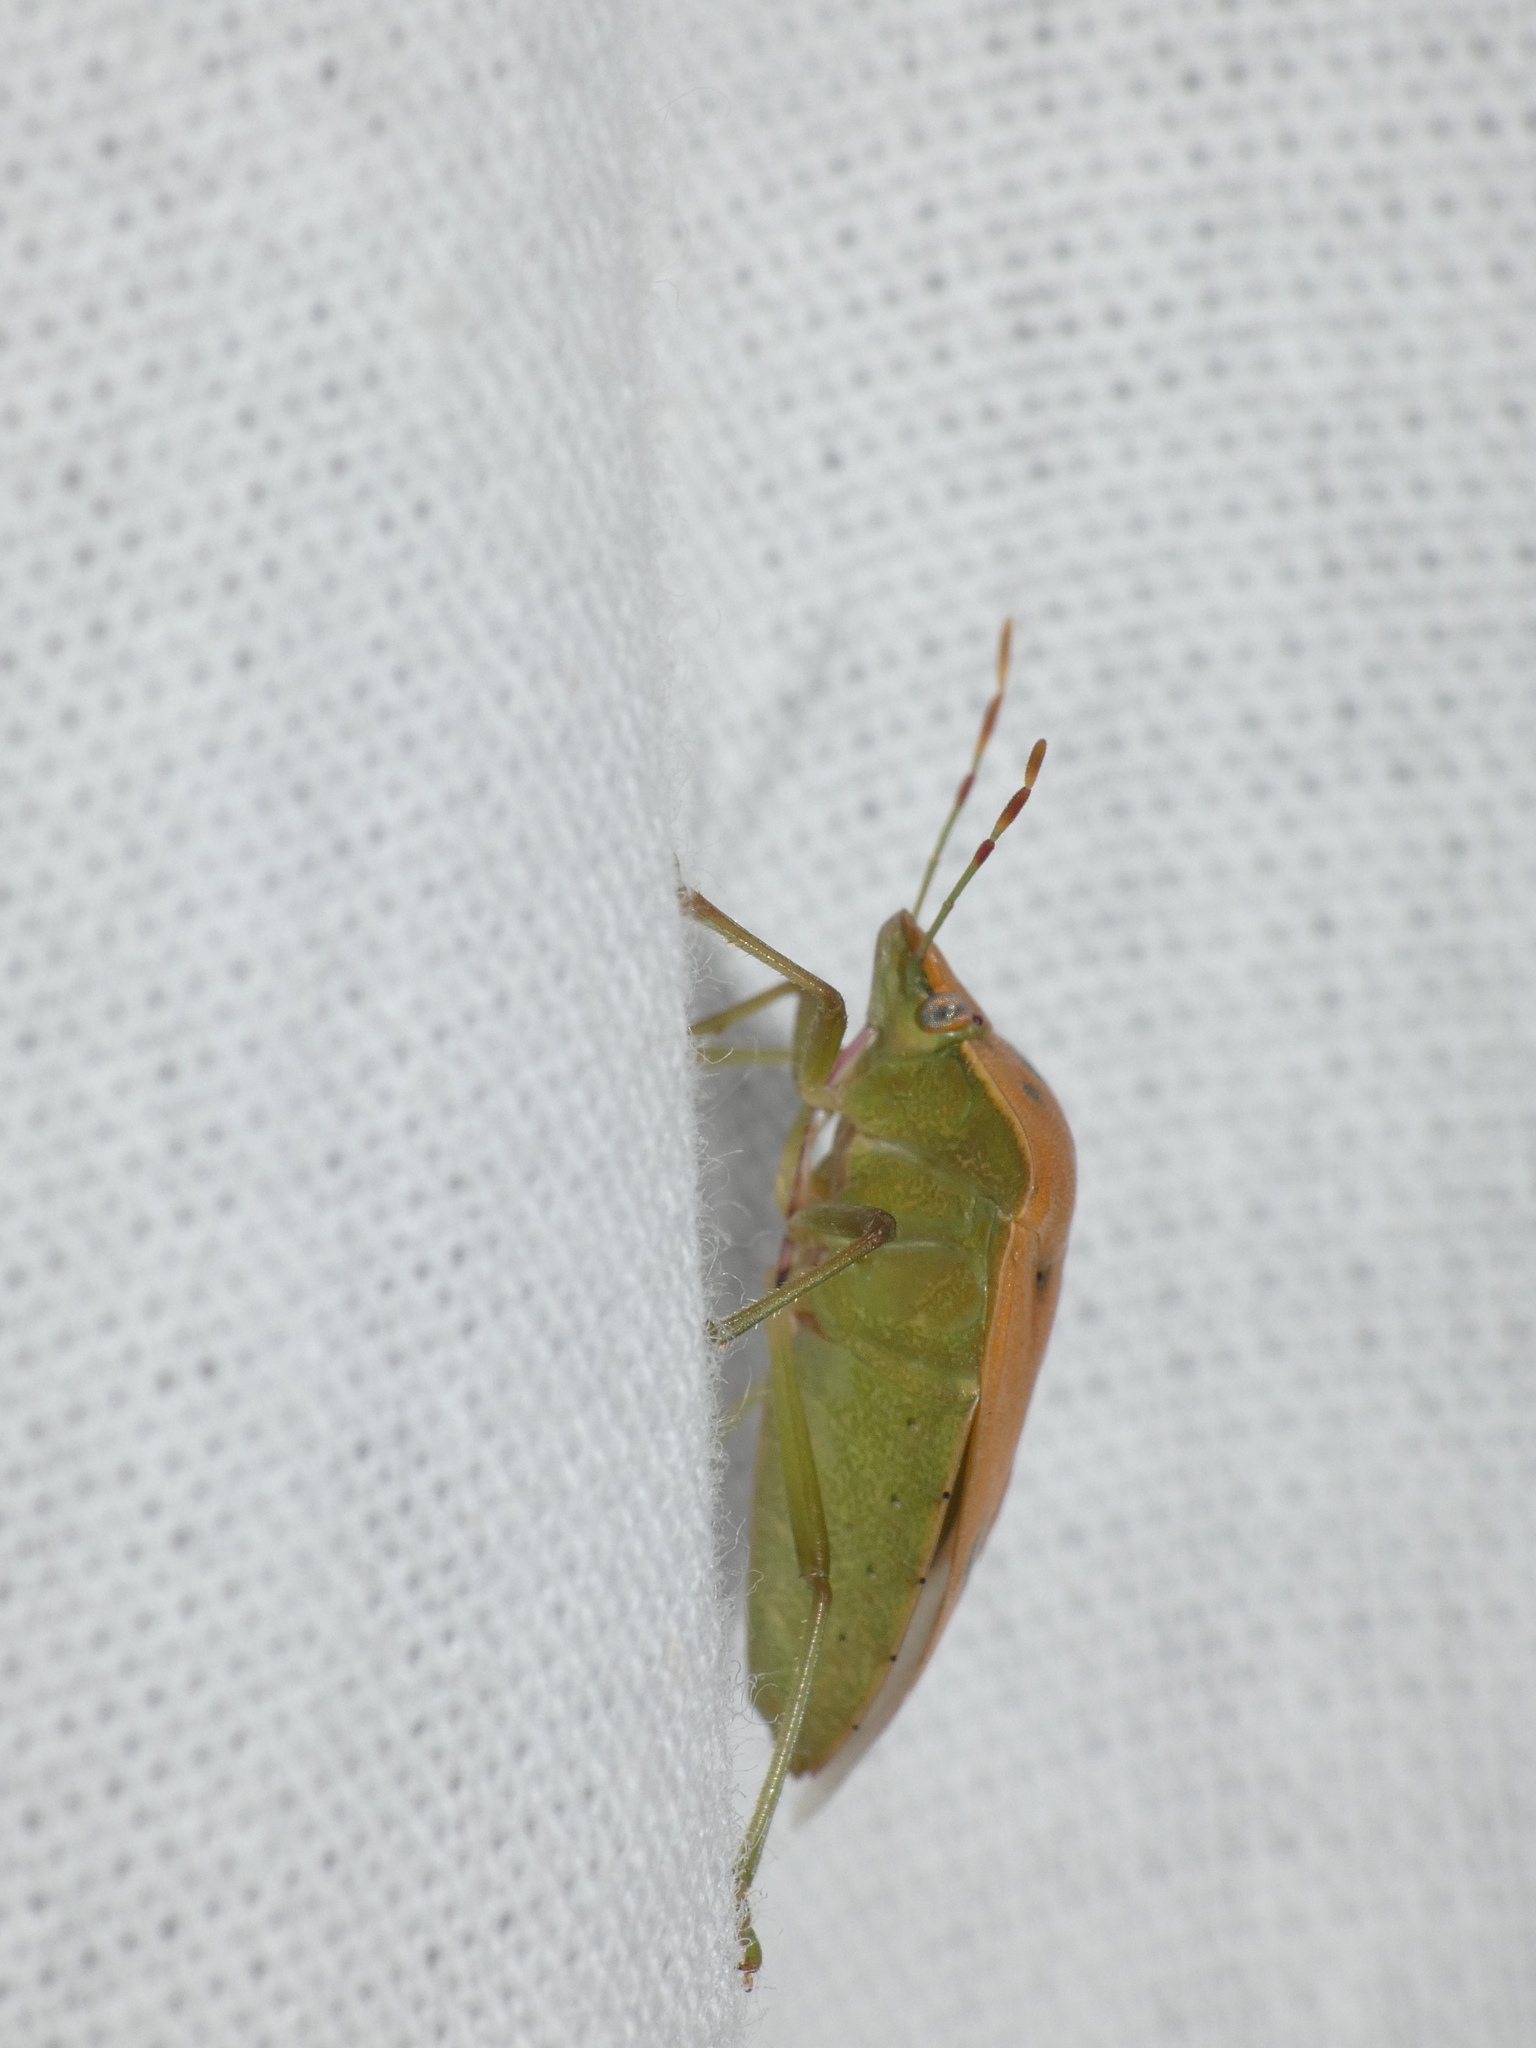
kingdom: Animalia
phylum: Arthropoda
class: Insecta
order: Hemiptera
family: Pentatomidae
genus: Nezara
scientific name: Nezara viridula
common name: Southern green stink bug
